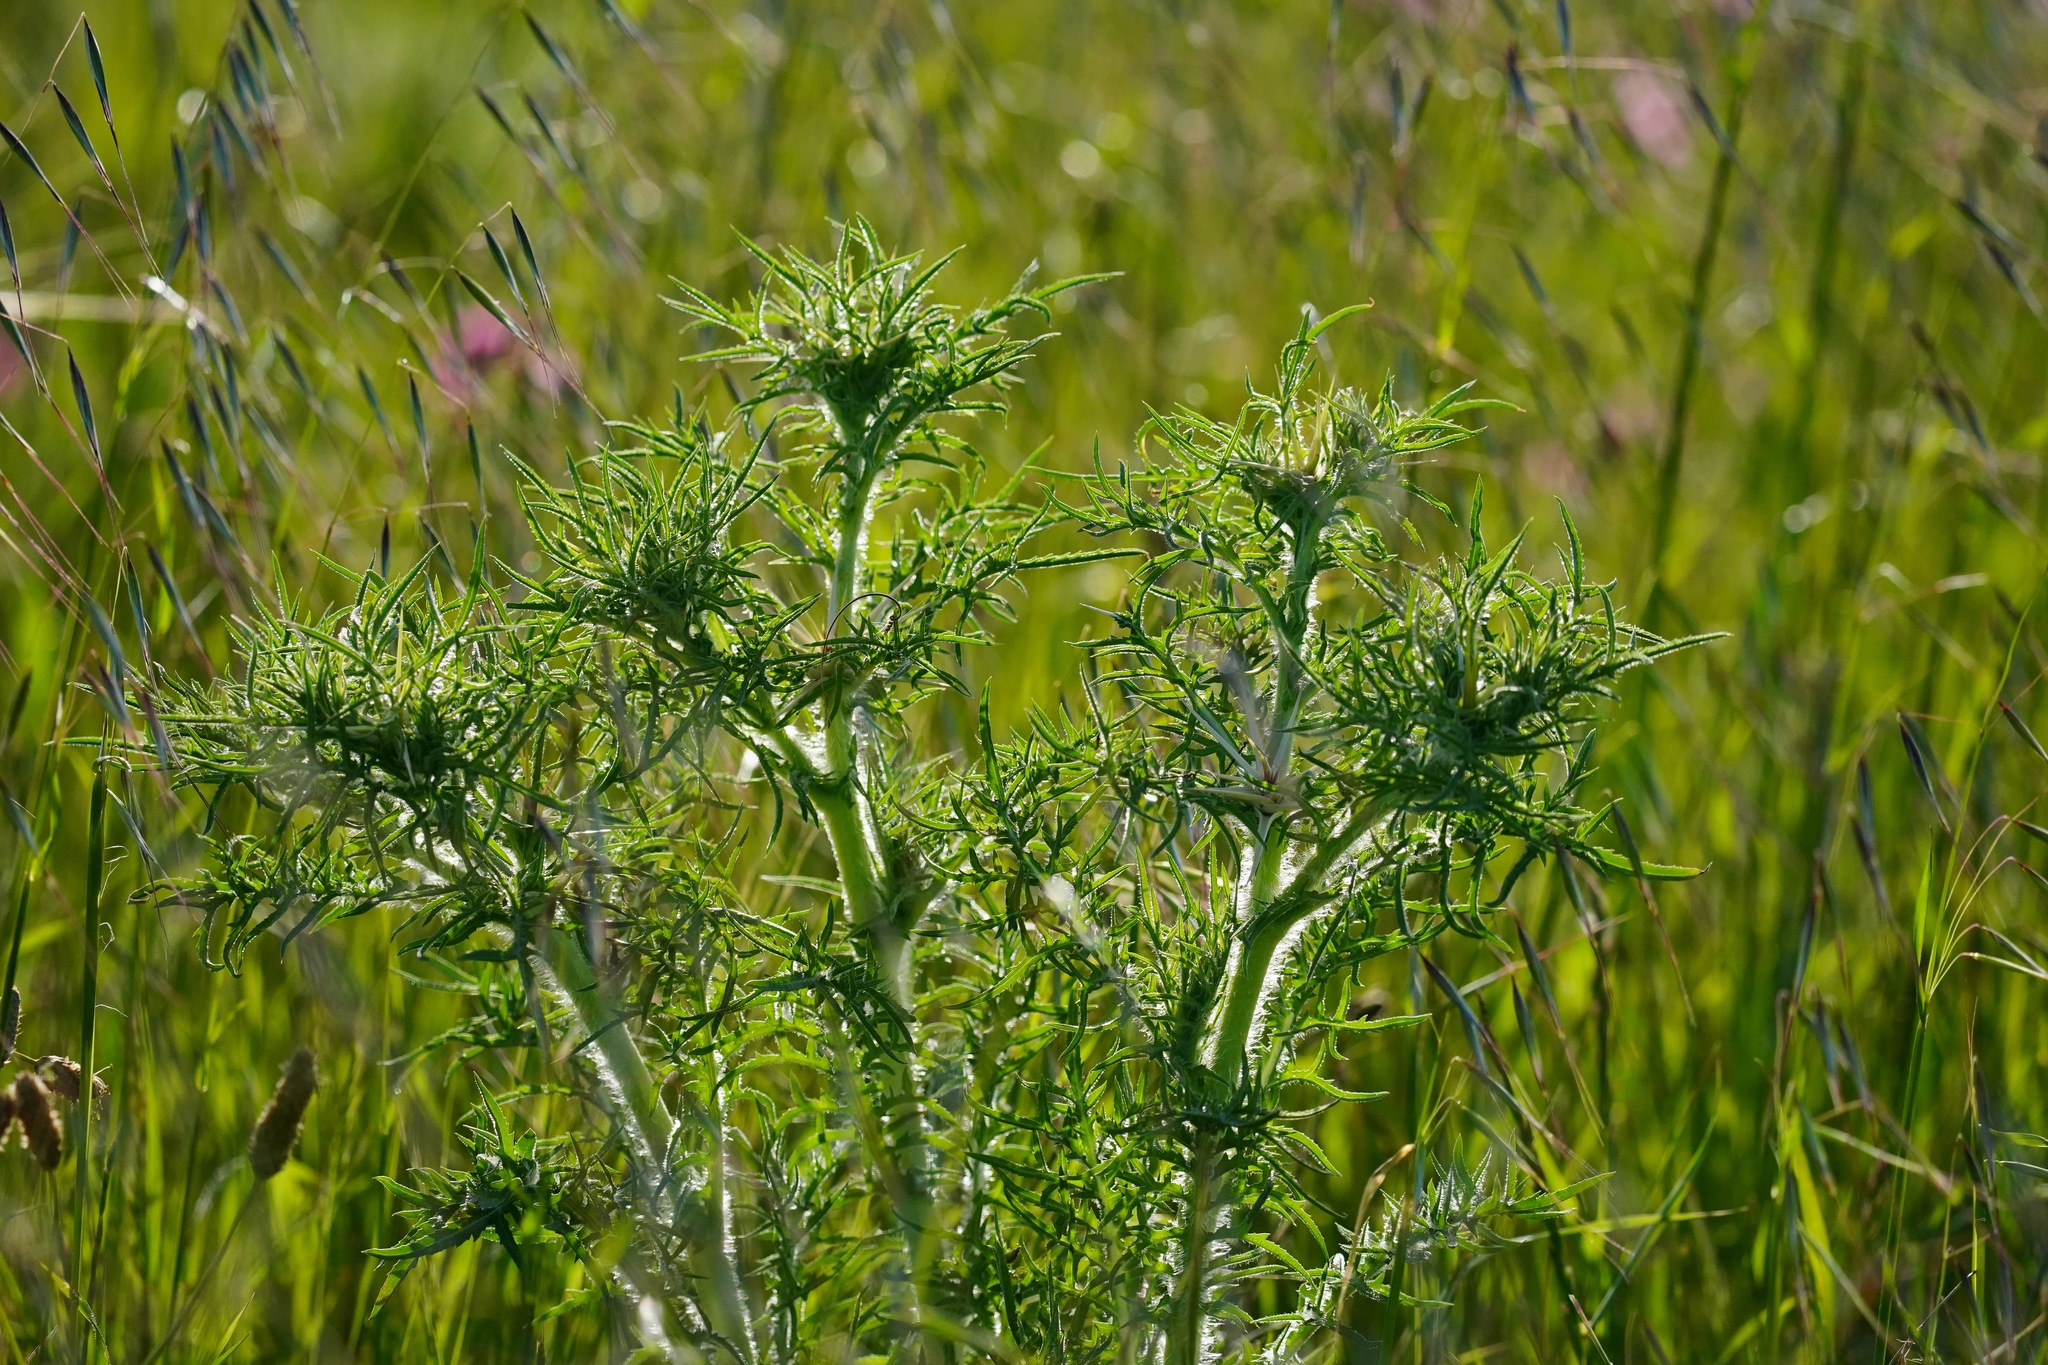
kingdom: Plantae
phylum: Tracheophyta
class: Magnoliopsida
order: Asterales
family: Asteraceae
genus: Centaurea
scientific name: Centaurea calcitrapa
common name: Red star-thistle
